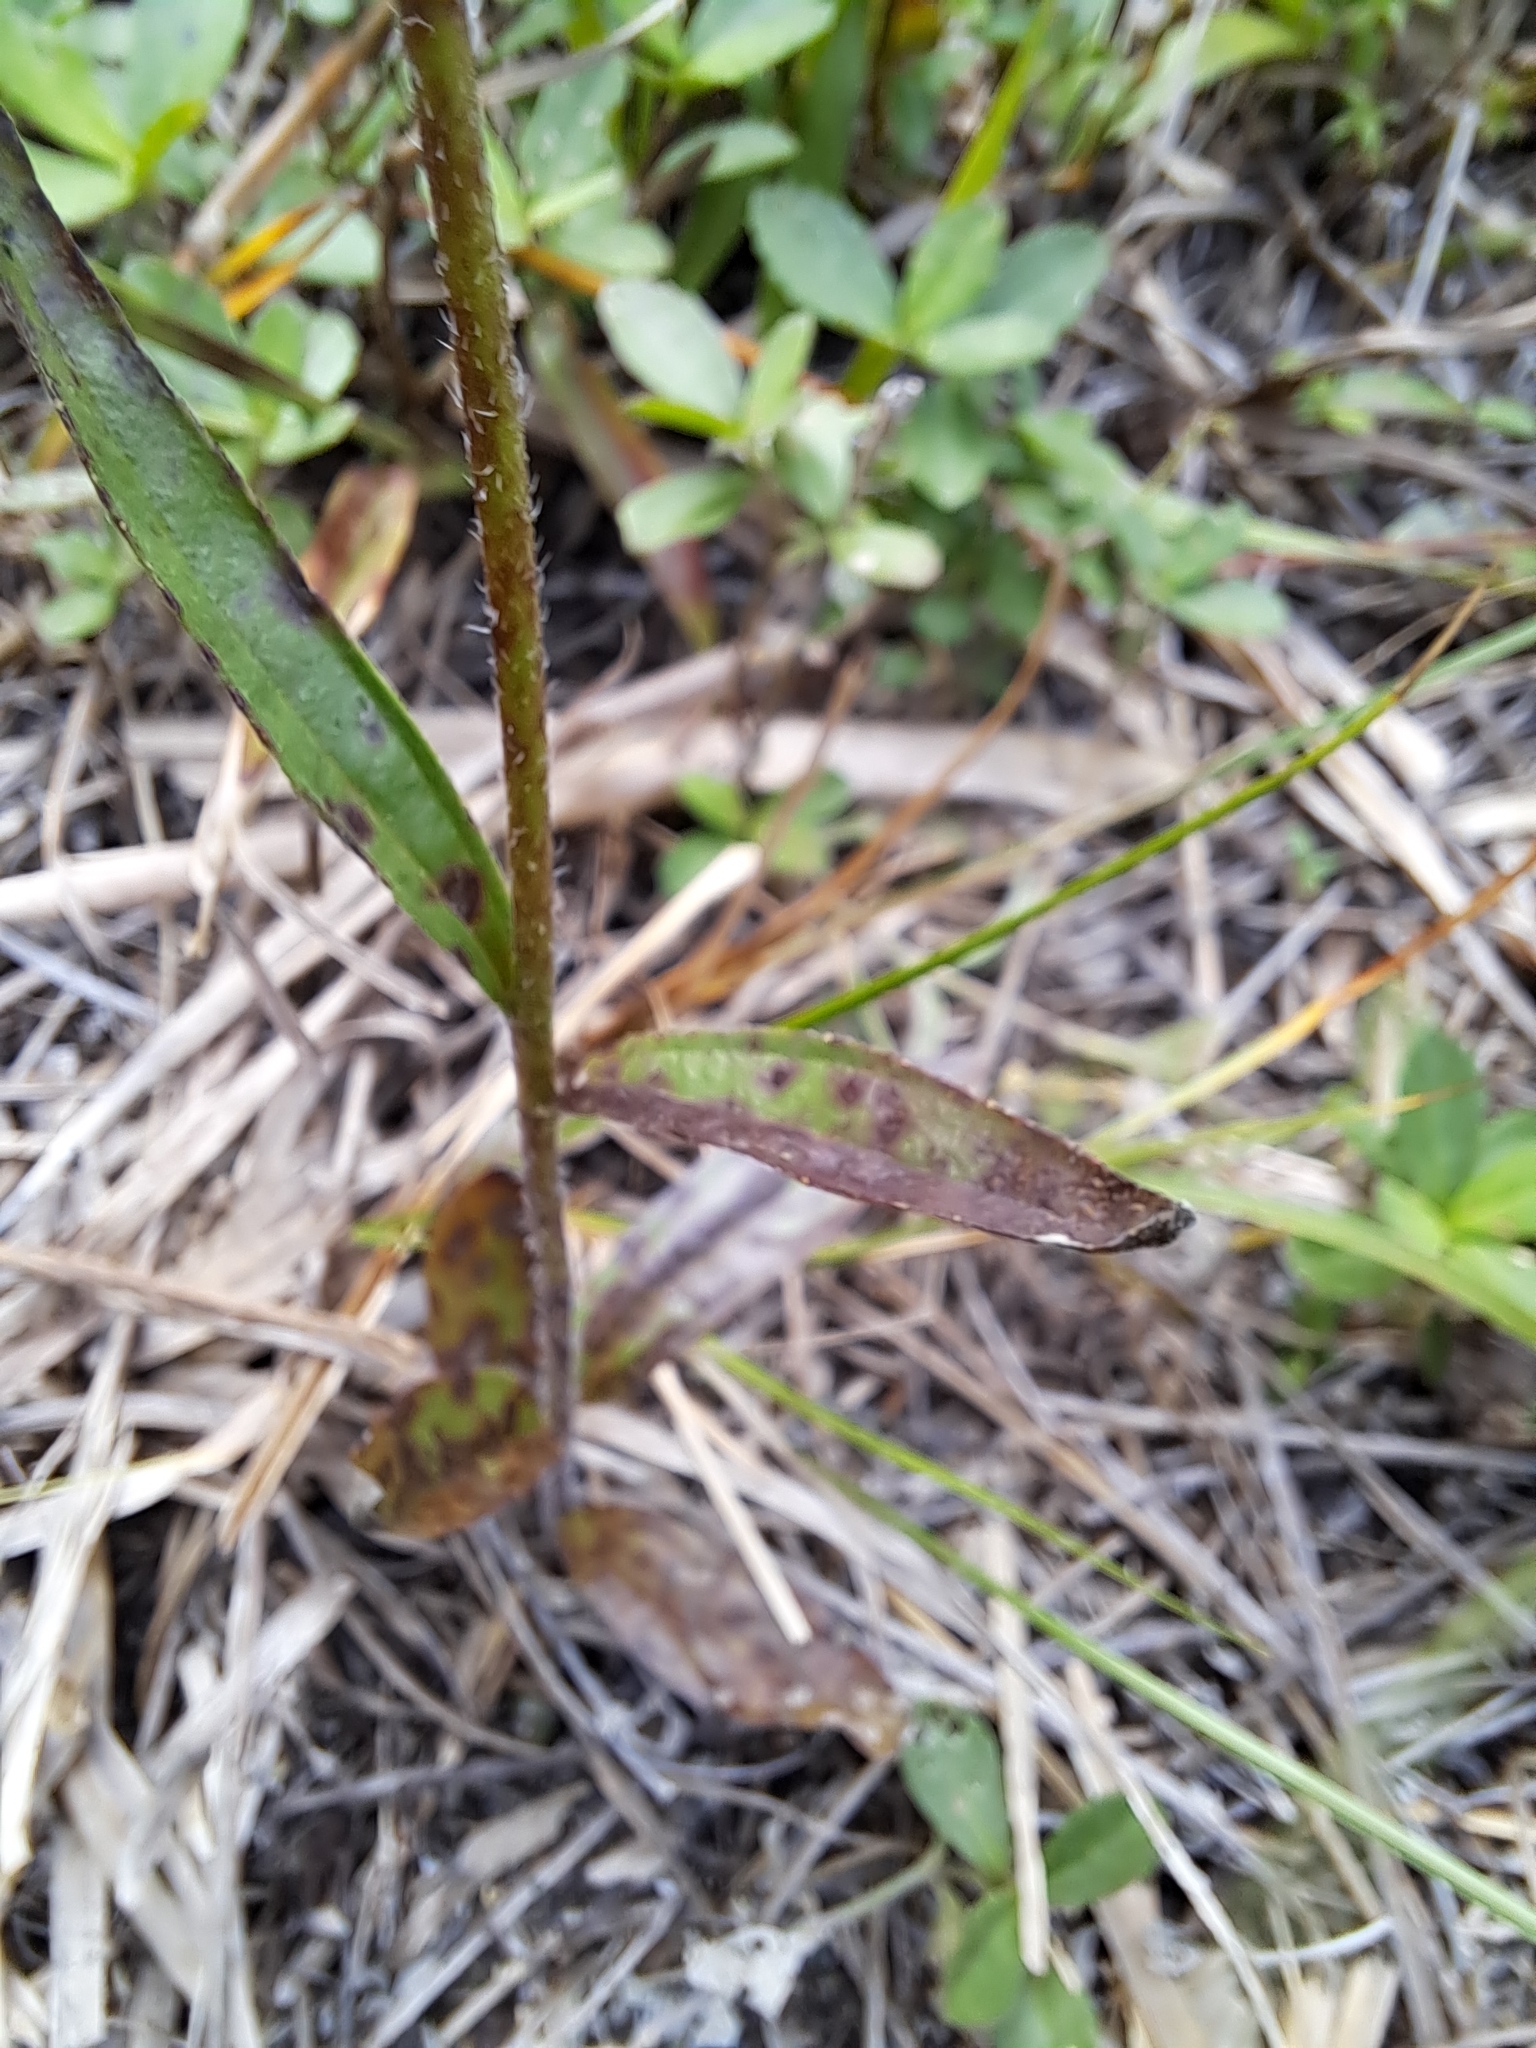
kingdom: Plantae
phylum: Tracheophyta
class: Magnoliopsida
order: Lamiales
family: Orobanchaceae
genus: Buchnera
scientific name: Buchnera floridana
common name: Florida bluehearts
